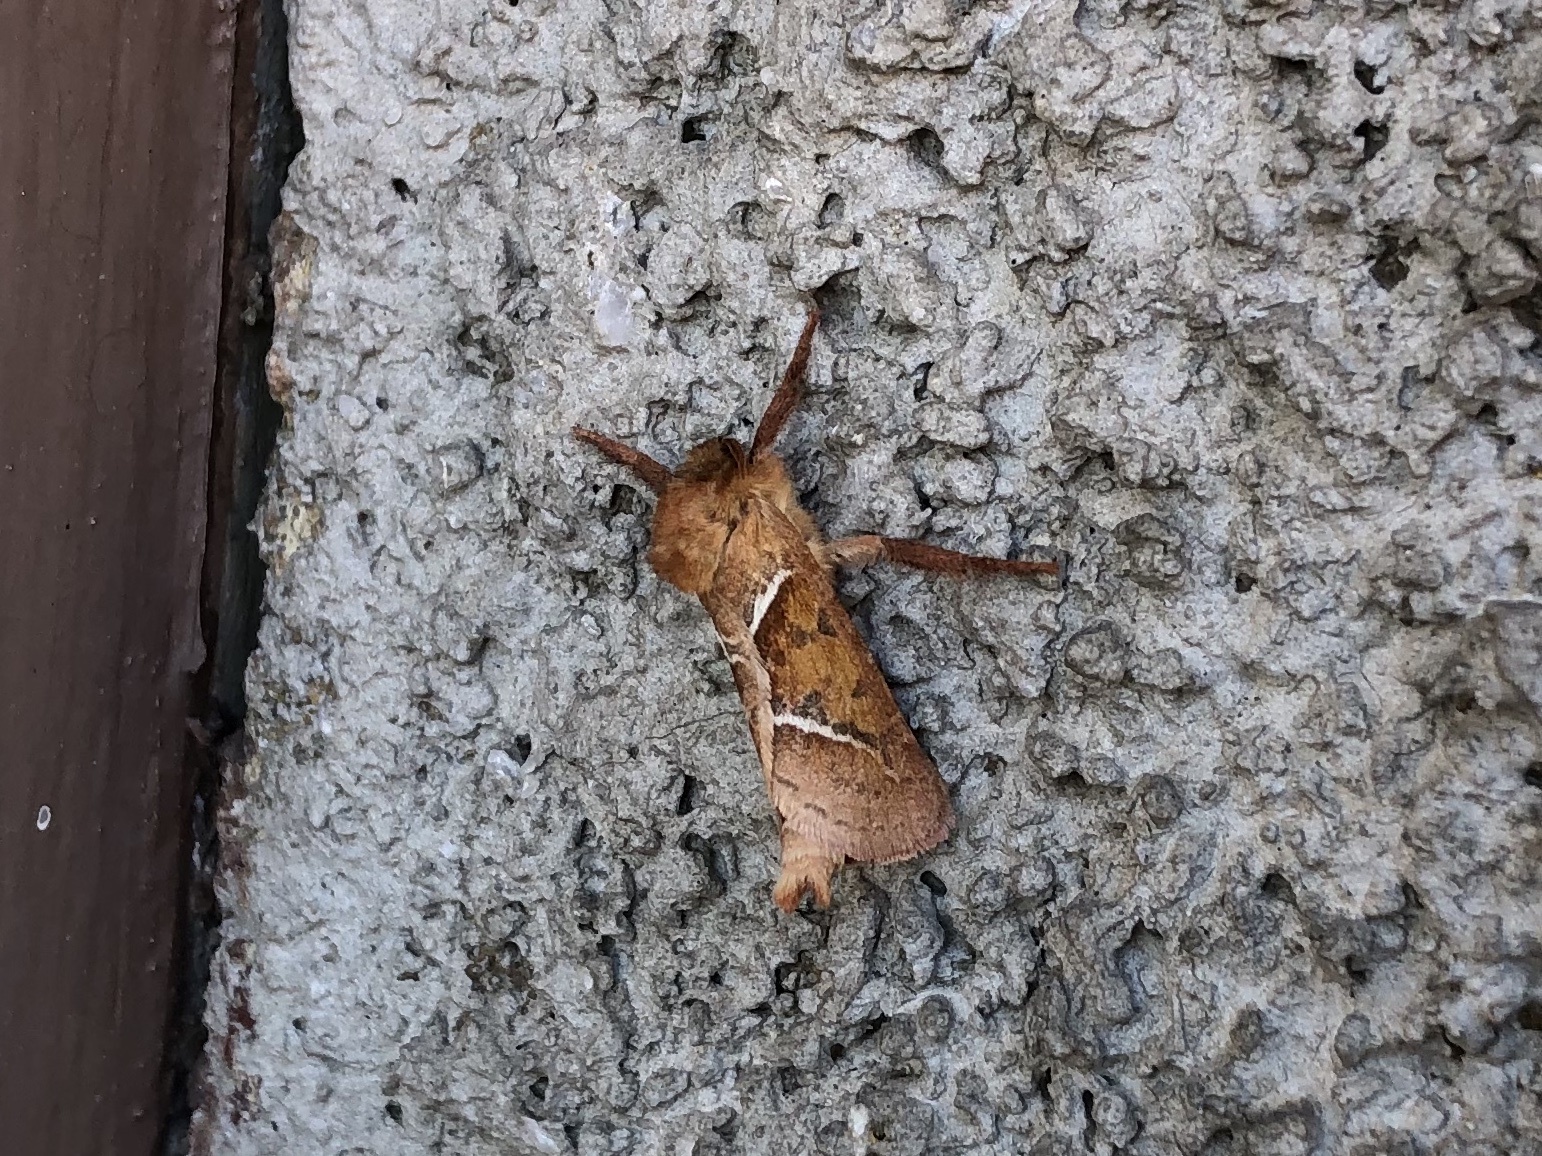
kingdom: Animalia
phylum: Arthropoda
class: Insecta
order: Lepidoptera
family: Hepialidae
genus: Triodia
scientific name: Triodia sylvina
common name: Orange swift
